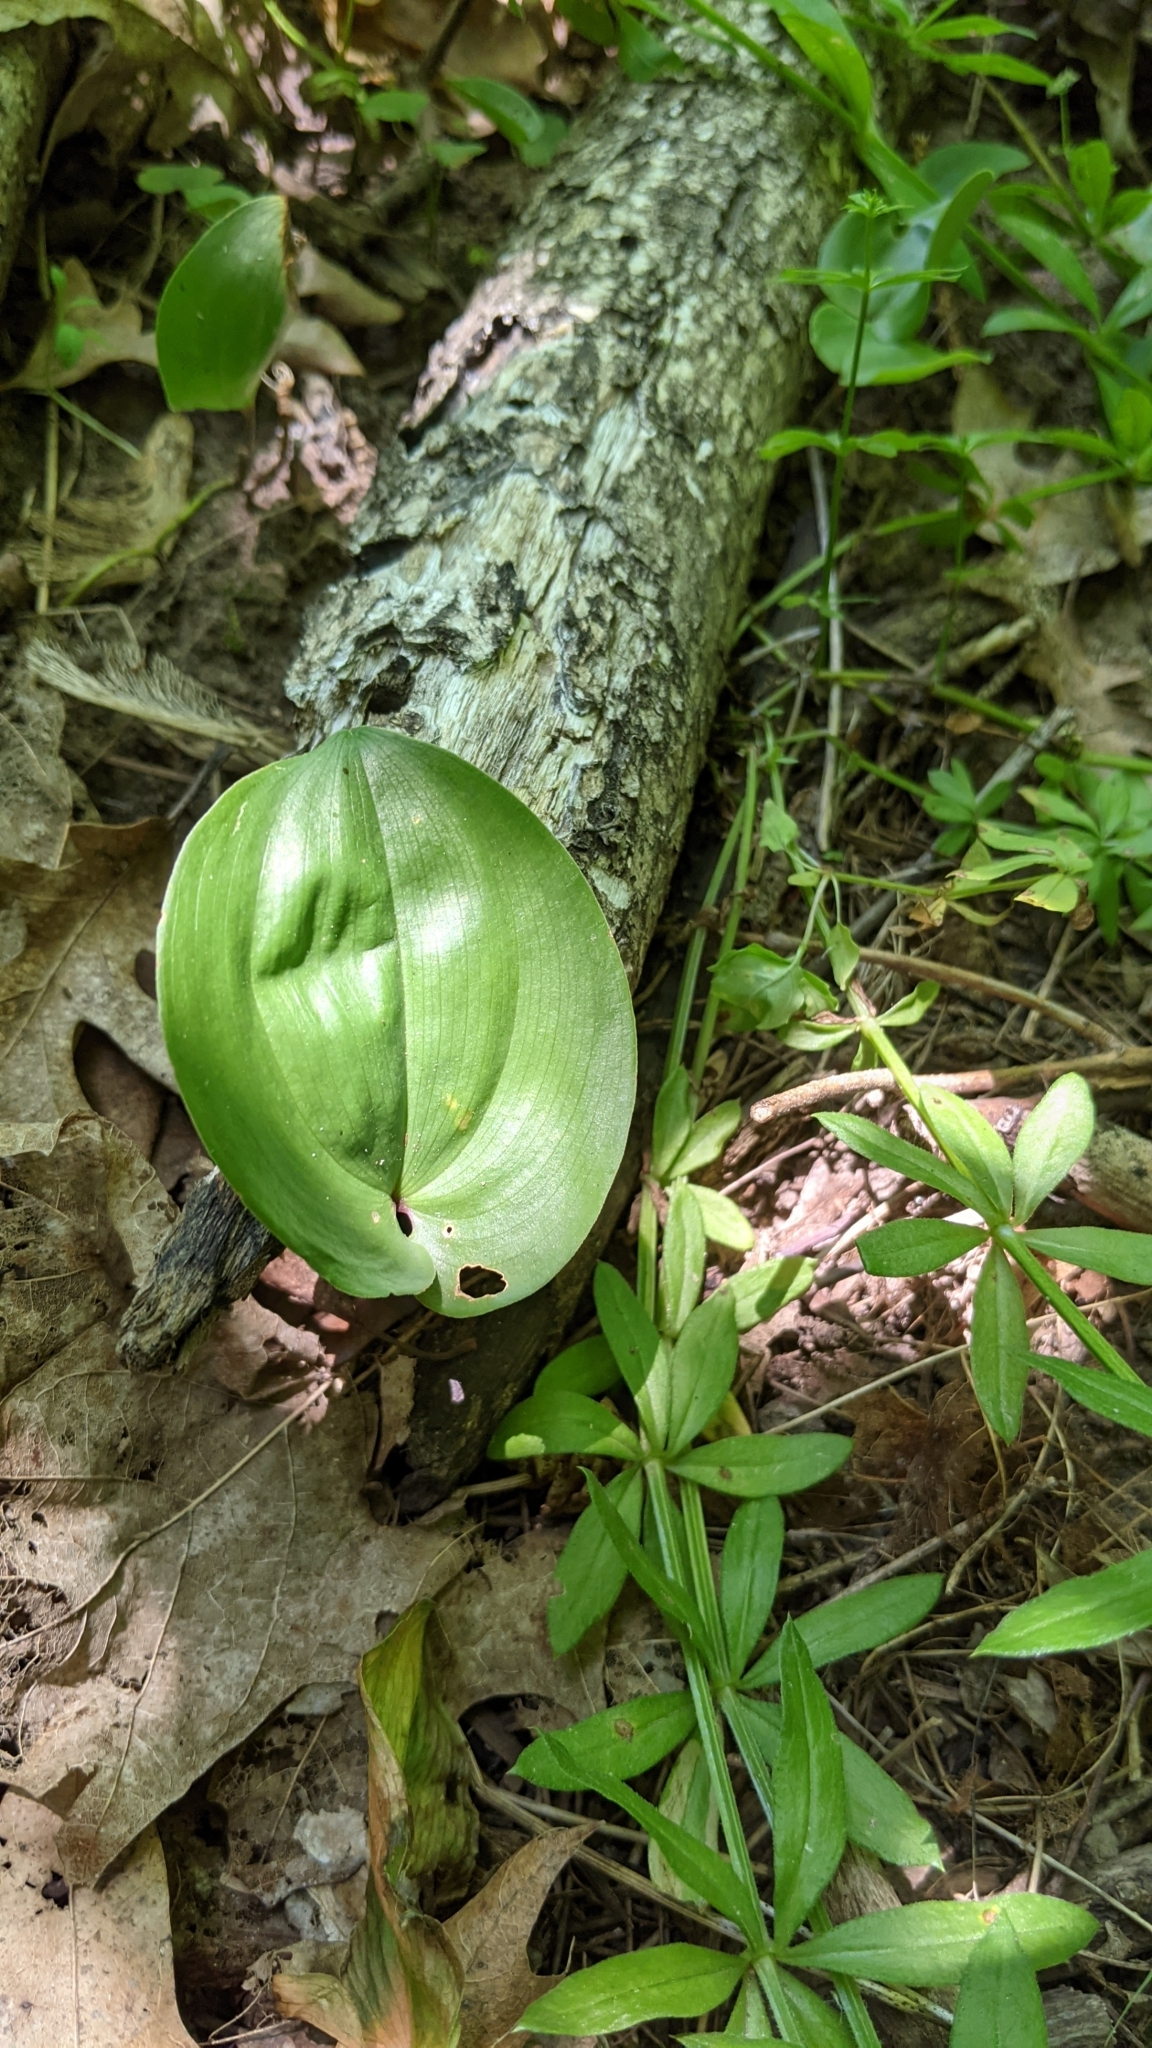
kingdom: Plantae
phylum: Tracheophyta
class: Liliopsida
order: Asparagales
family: Asparagaceae
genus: Maianthemum
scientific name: Maianthemum canadense
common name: False lily-of-the-valley
